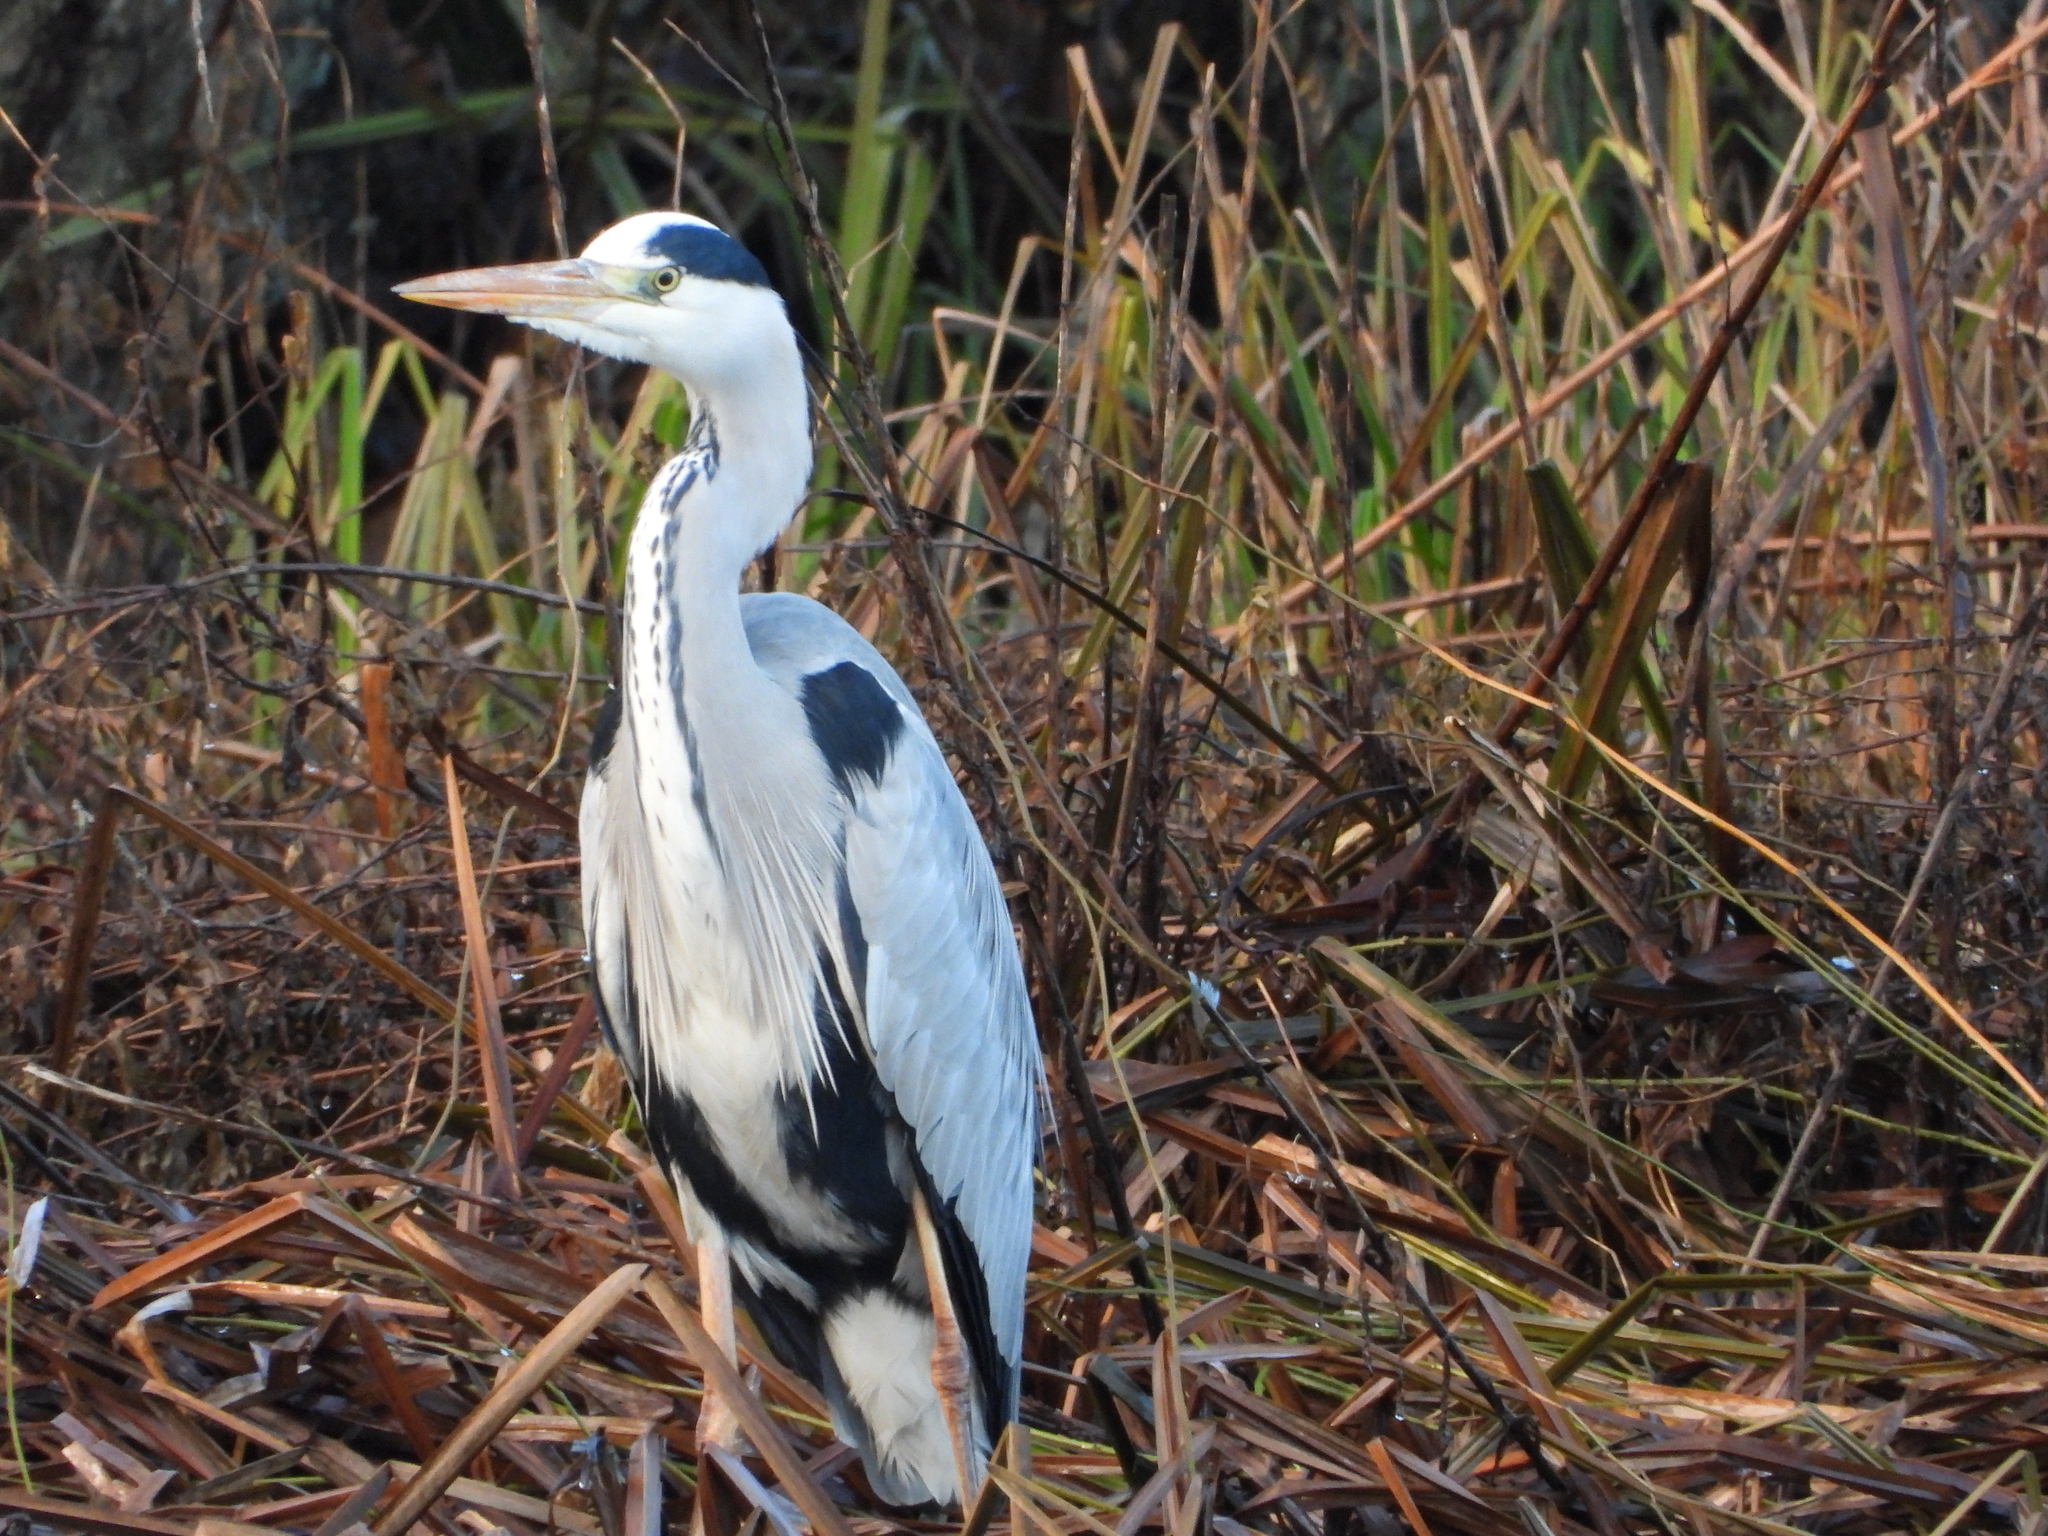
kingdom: Animalia
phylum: Chordata
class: Aves
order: Pelecaniformes
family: Ardeidae
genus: Ardea
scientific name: Ardea cinerea
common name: Grey heron
